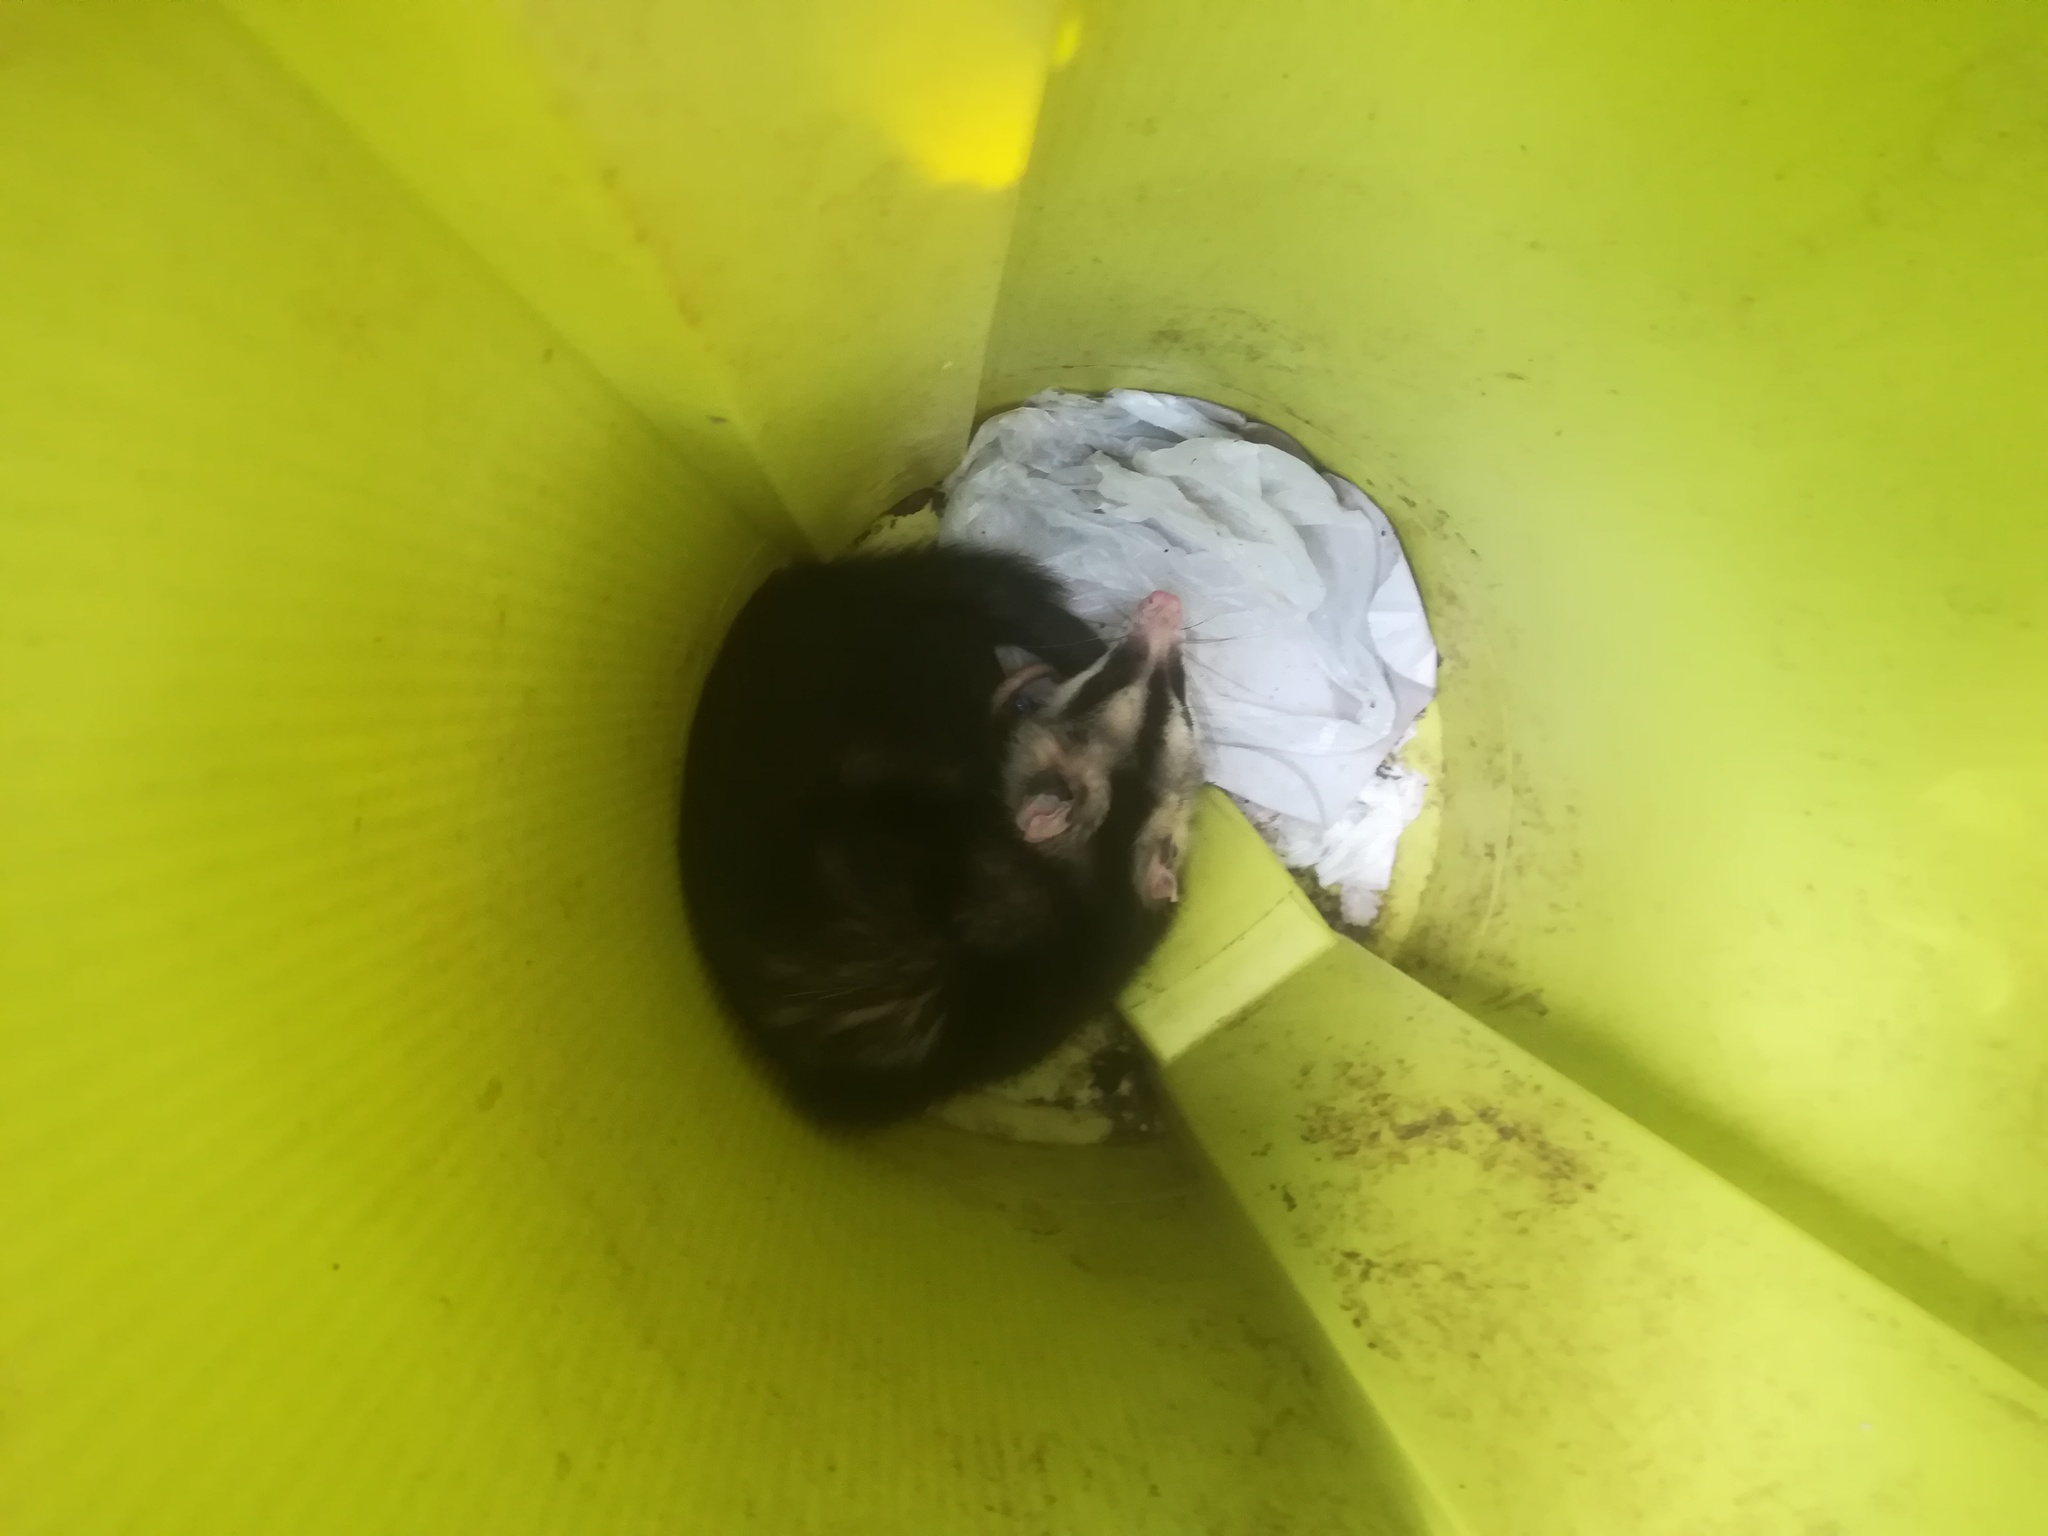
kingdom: Animalia
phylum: Chordata
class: Mammalia
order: Didelphimorphia
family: Didelphidae
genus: Didelphis
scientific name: Didelphis albiventris
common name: White-eared opossum
